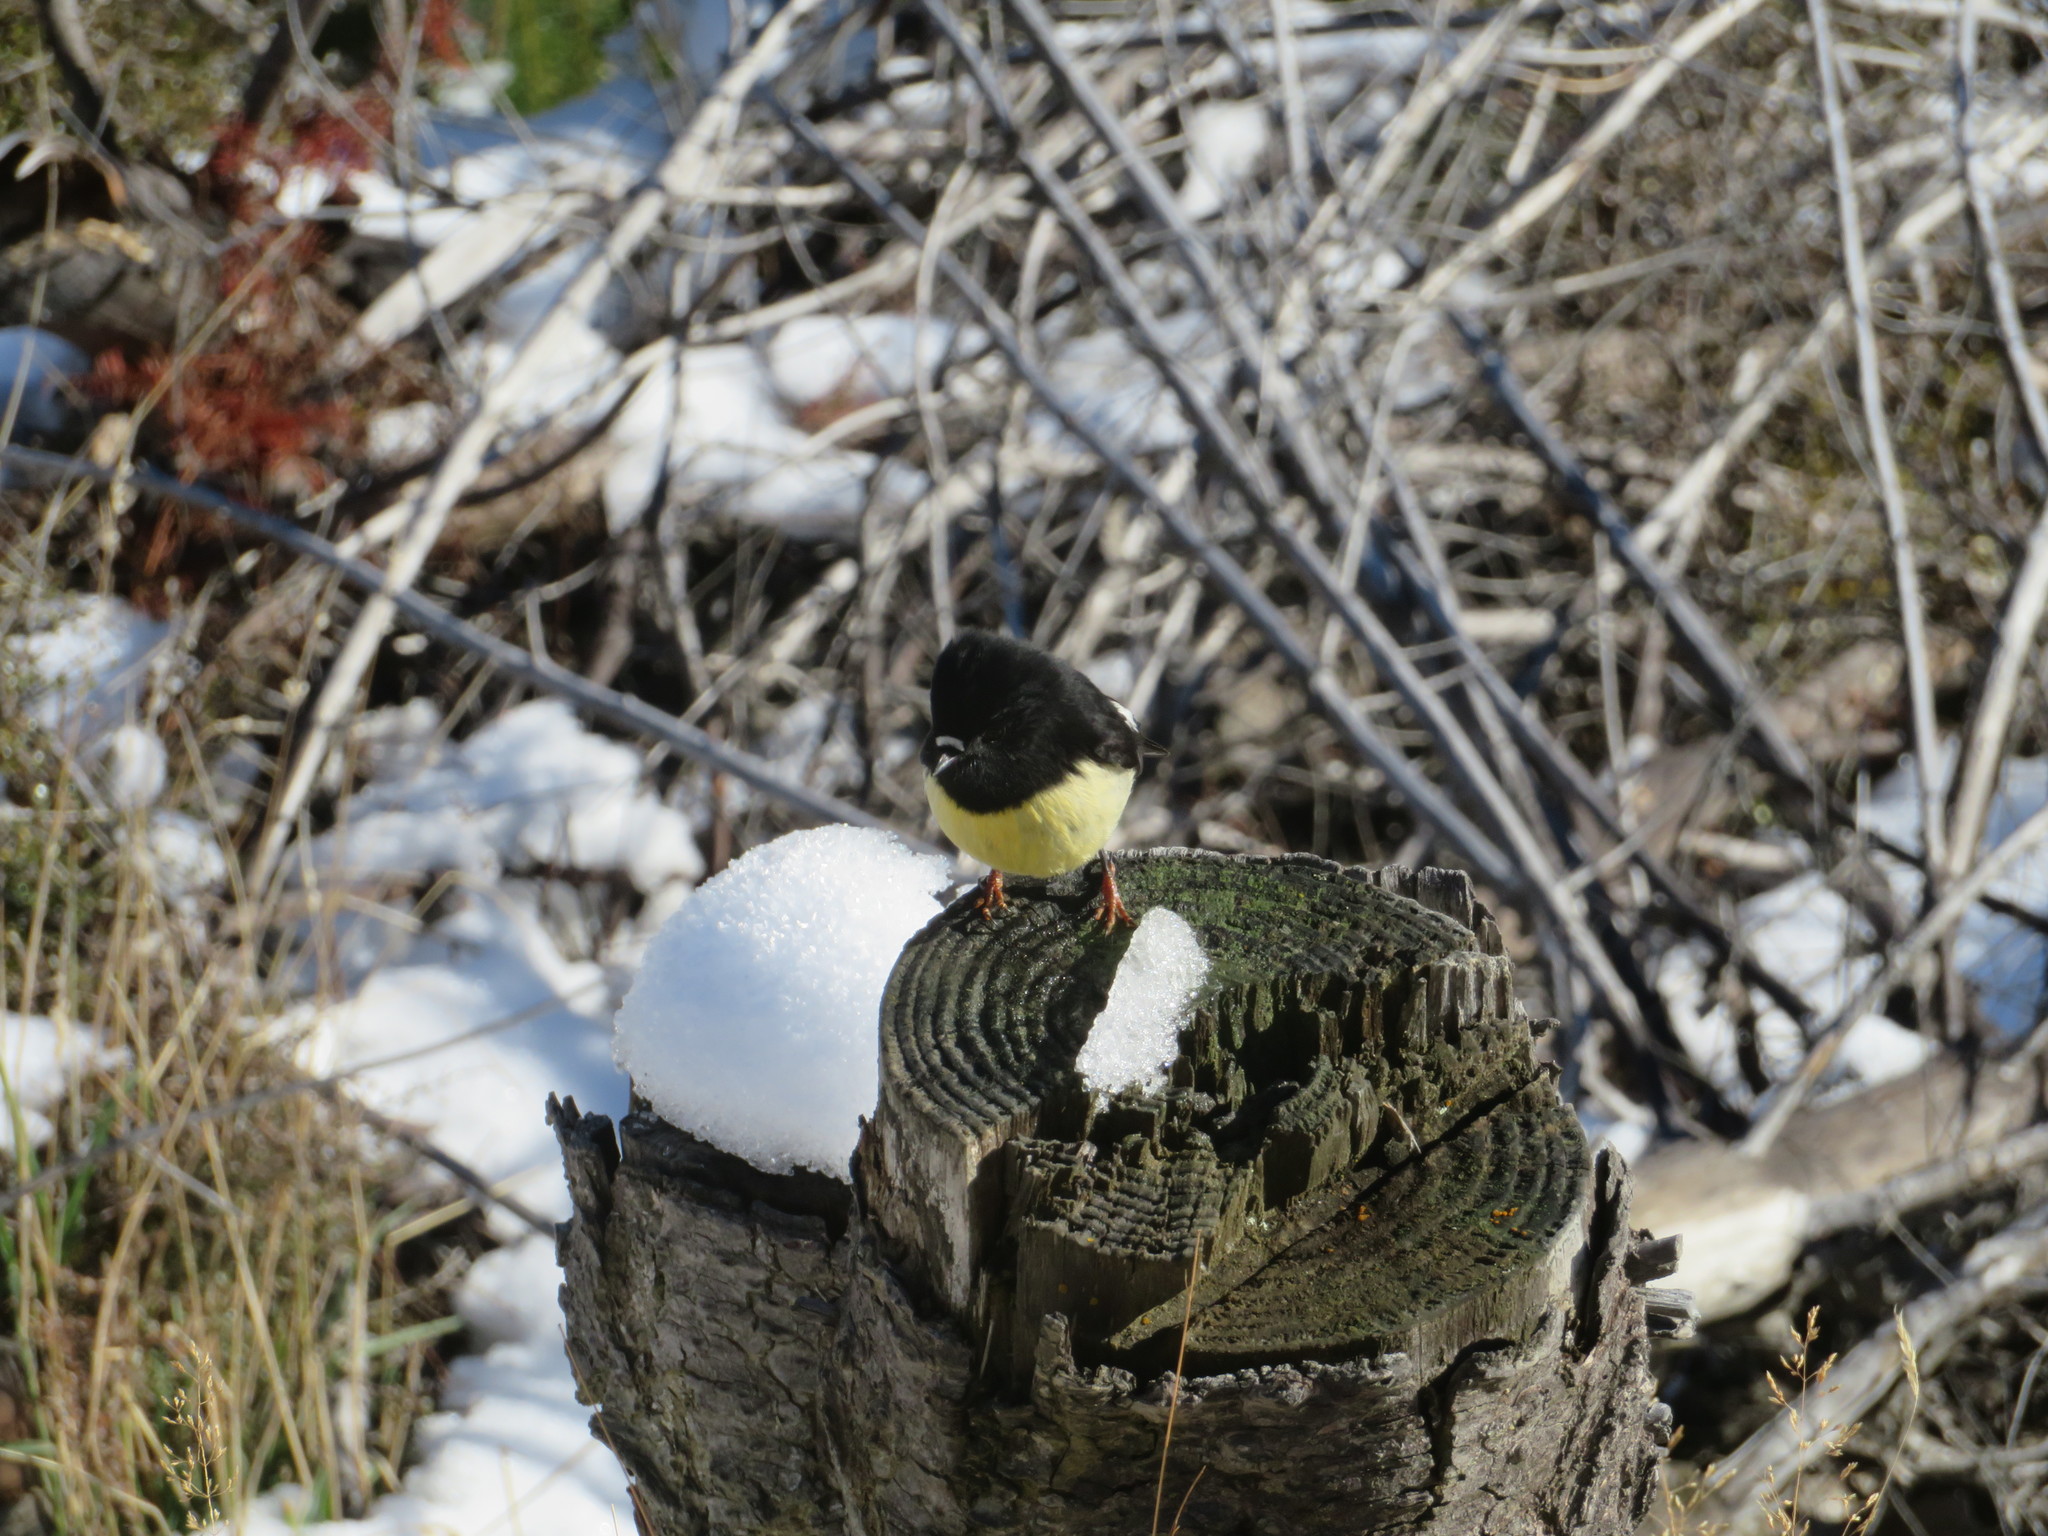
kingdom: Animalia
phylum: Chordata
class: Aves
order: Passeriformes
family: Petroicidae
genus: Petroica
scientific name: Petroica macrocephala
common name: Tomtit
